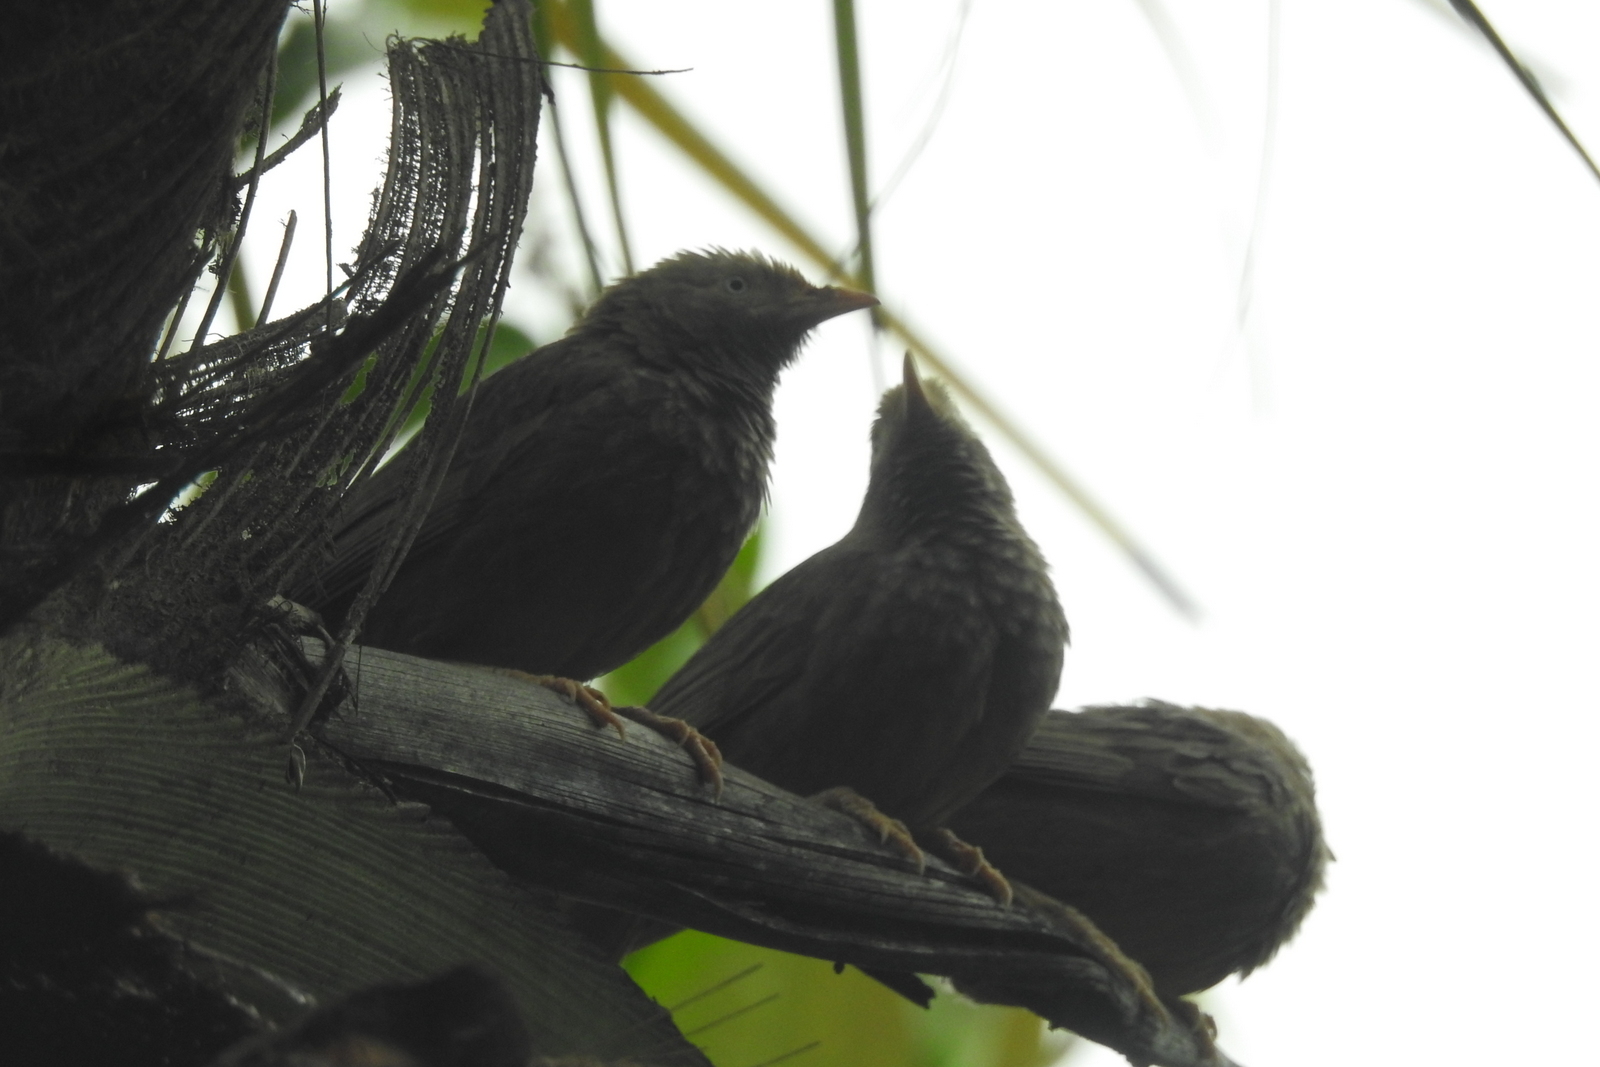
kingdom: Animalia
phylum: Chordata
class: Aves
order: Passeriformes
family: Leiothrichidae
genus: Turdoides
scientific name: Turdoides affinis
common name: Yellow-billed babbler
